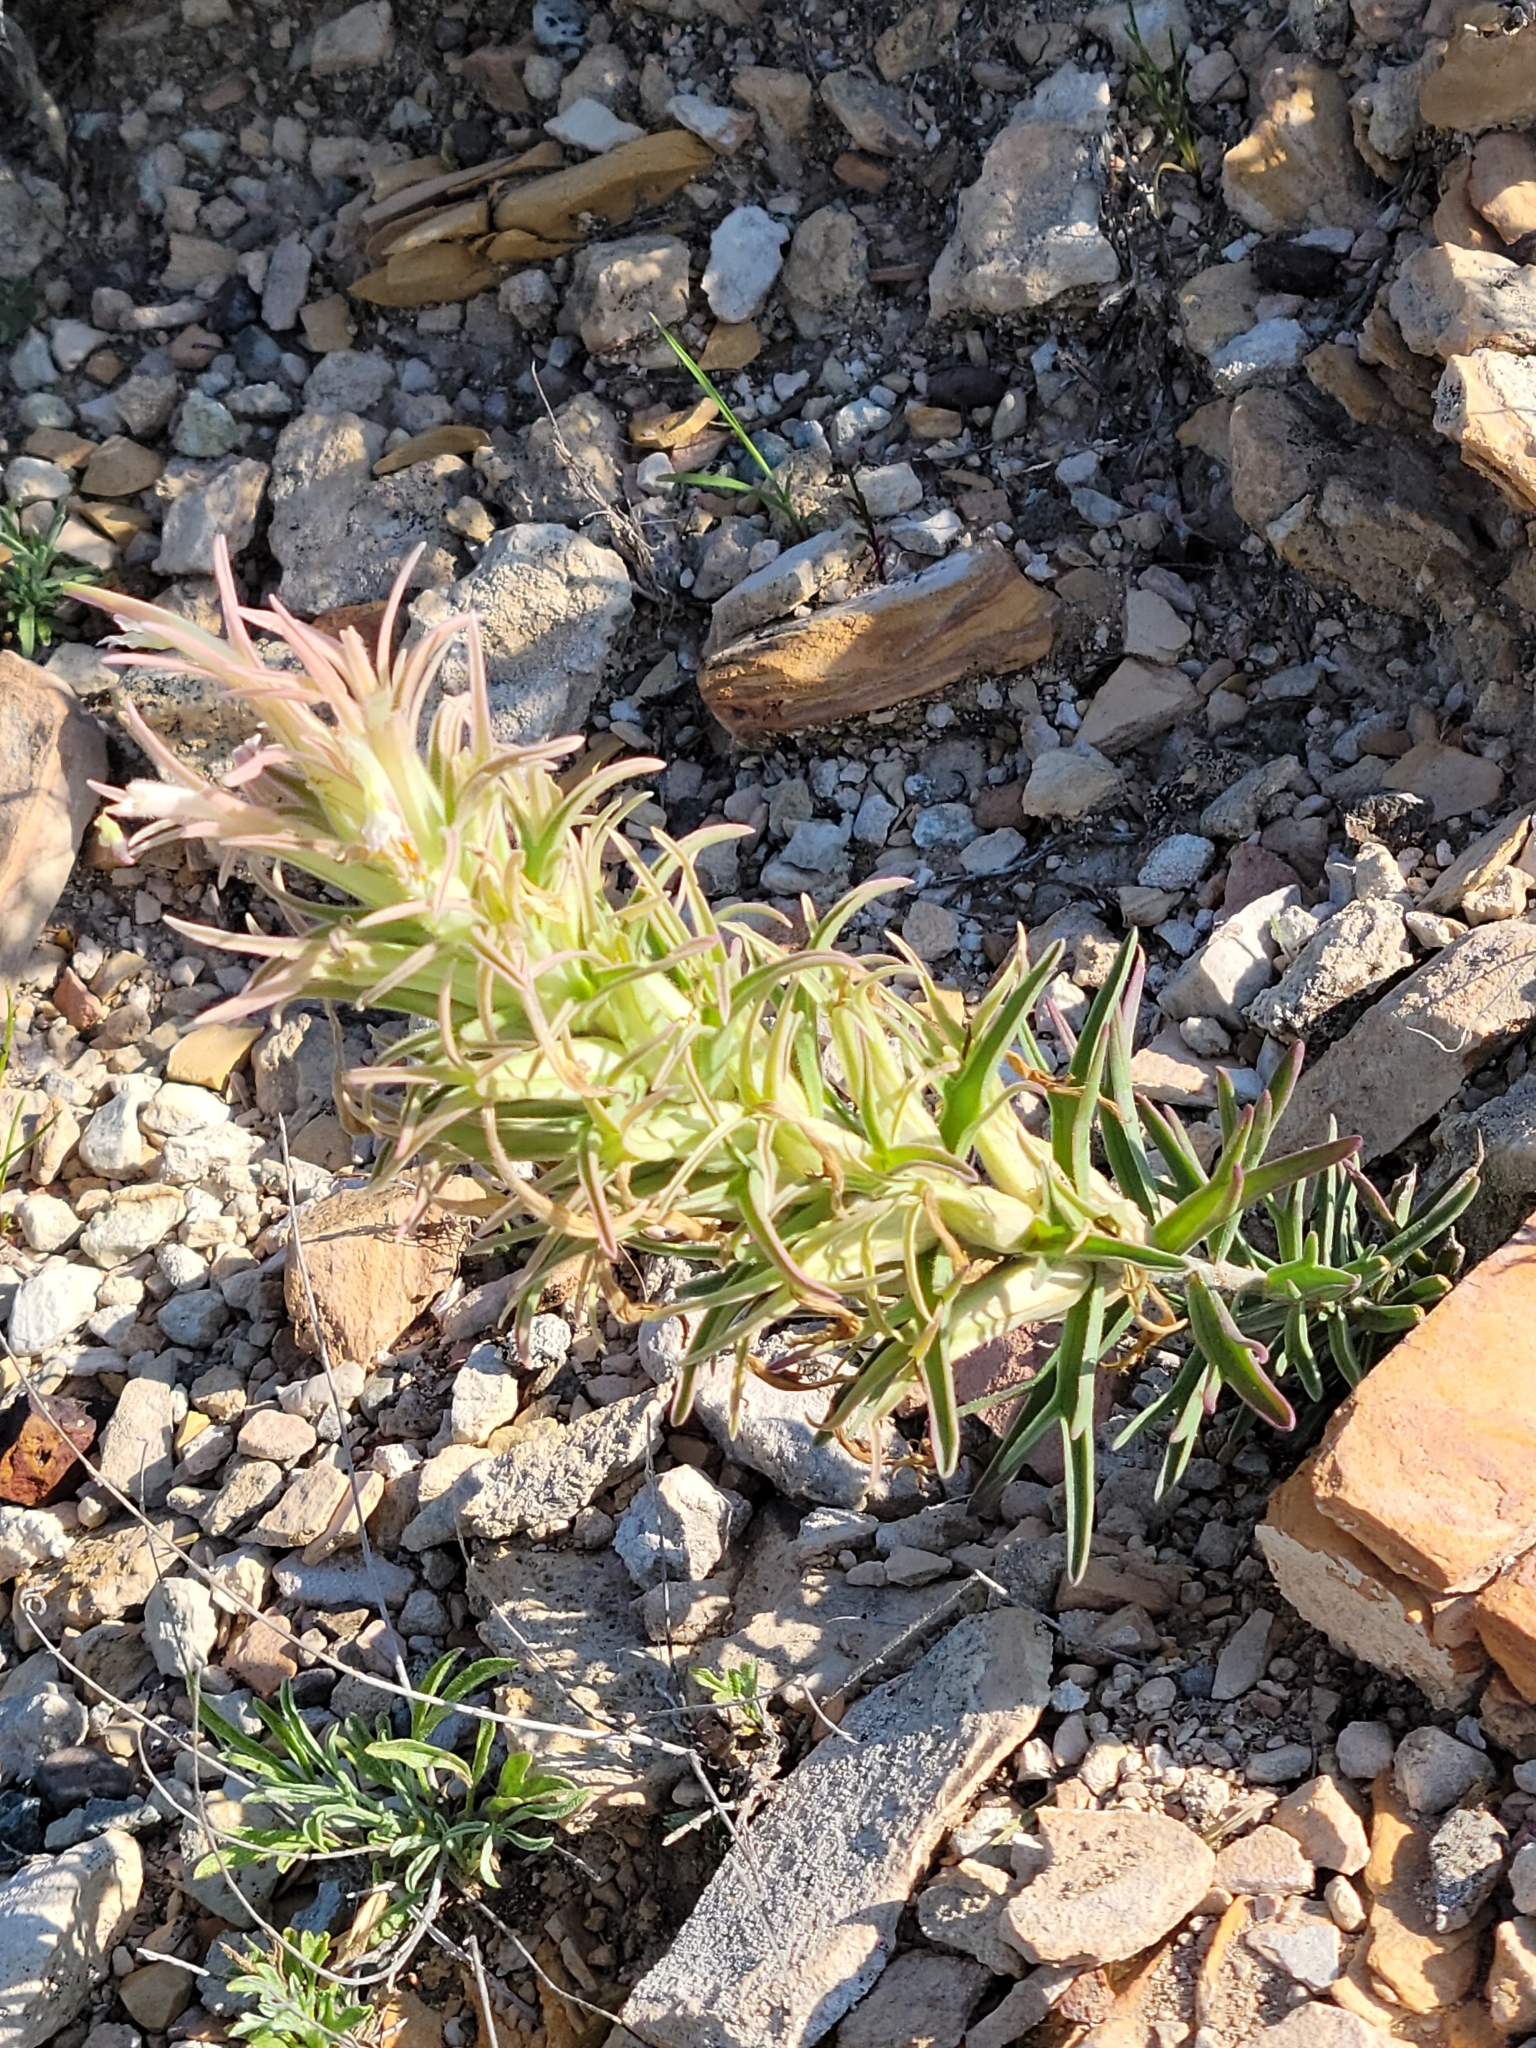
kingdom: Plantae
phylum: Tracheophyta
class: Magnoliopsida
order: Lamiales
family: Orobanchaceae
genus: Castilleja
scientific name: Castilleja sessiliflora
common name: Downy paintbrush
